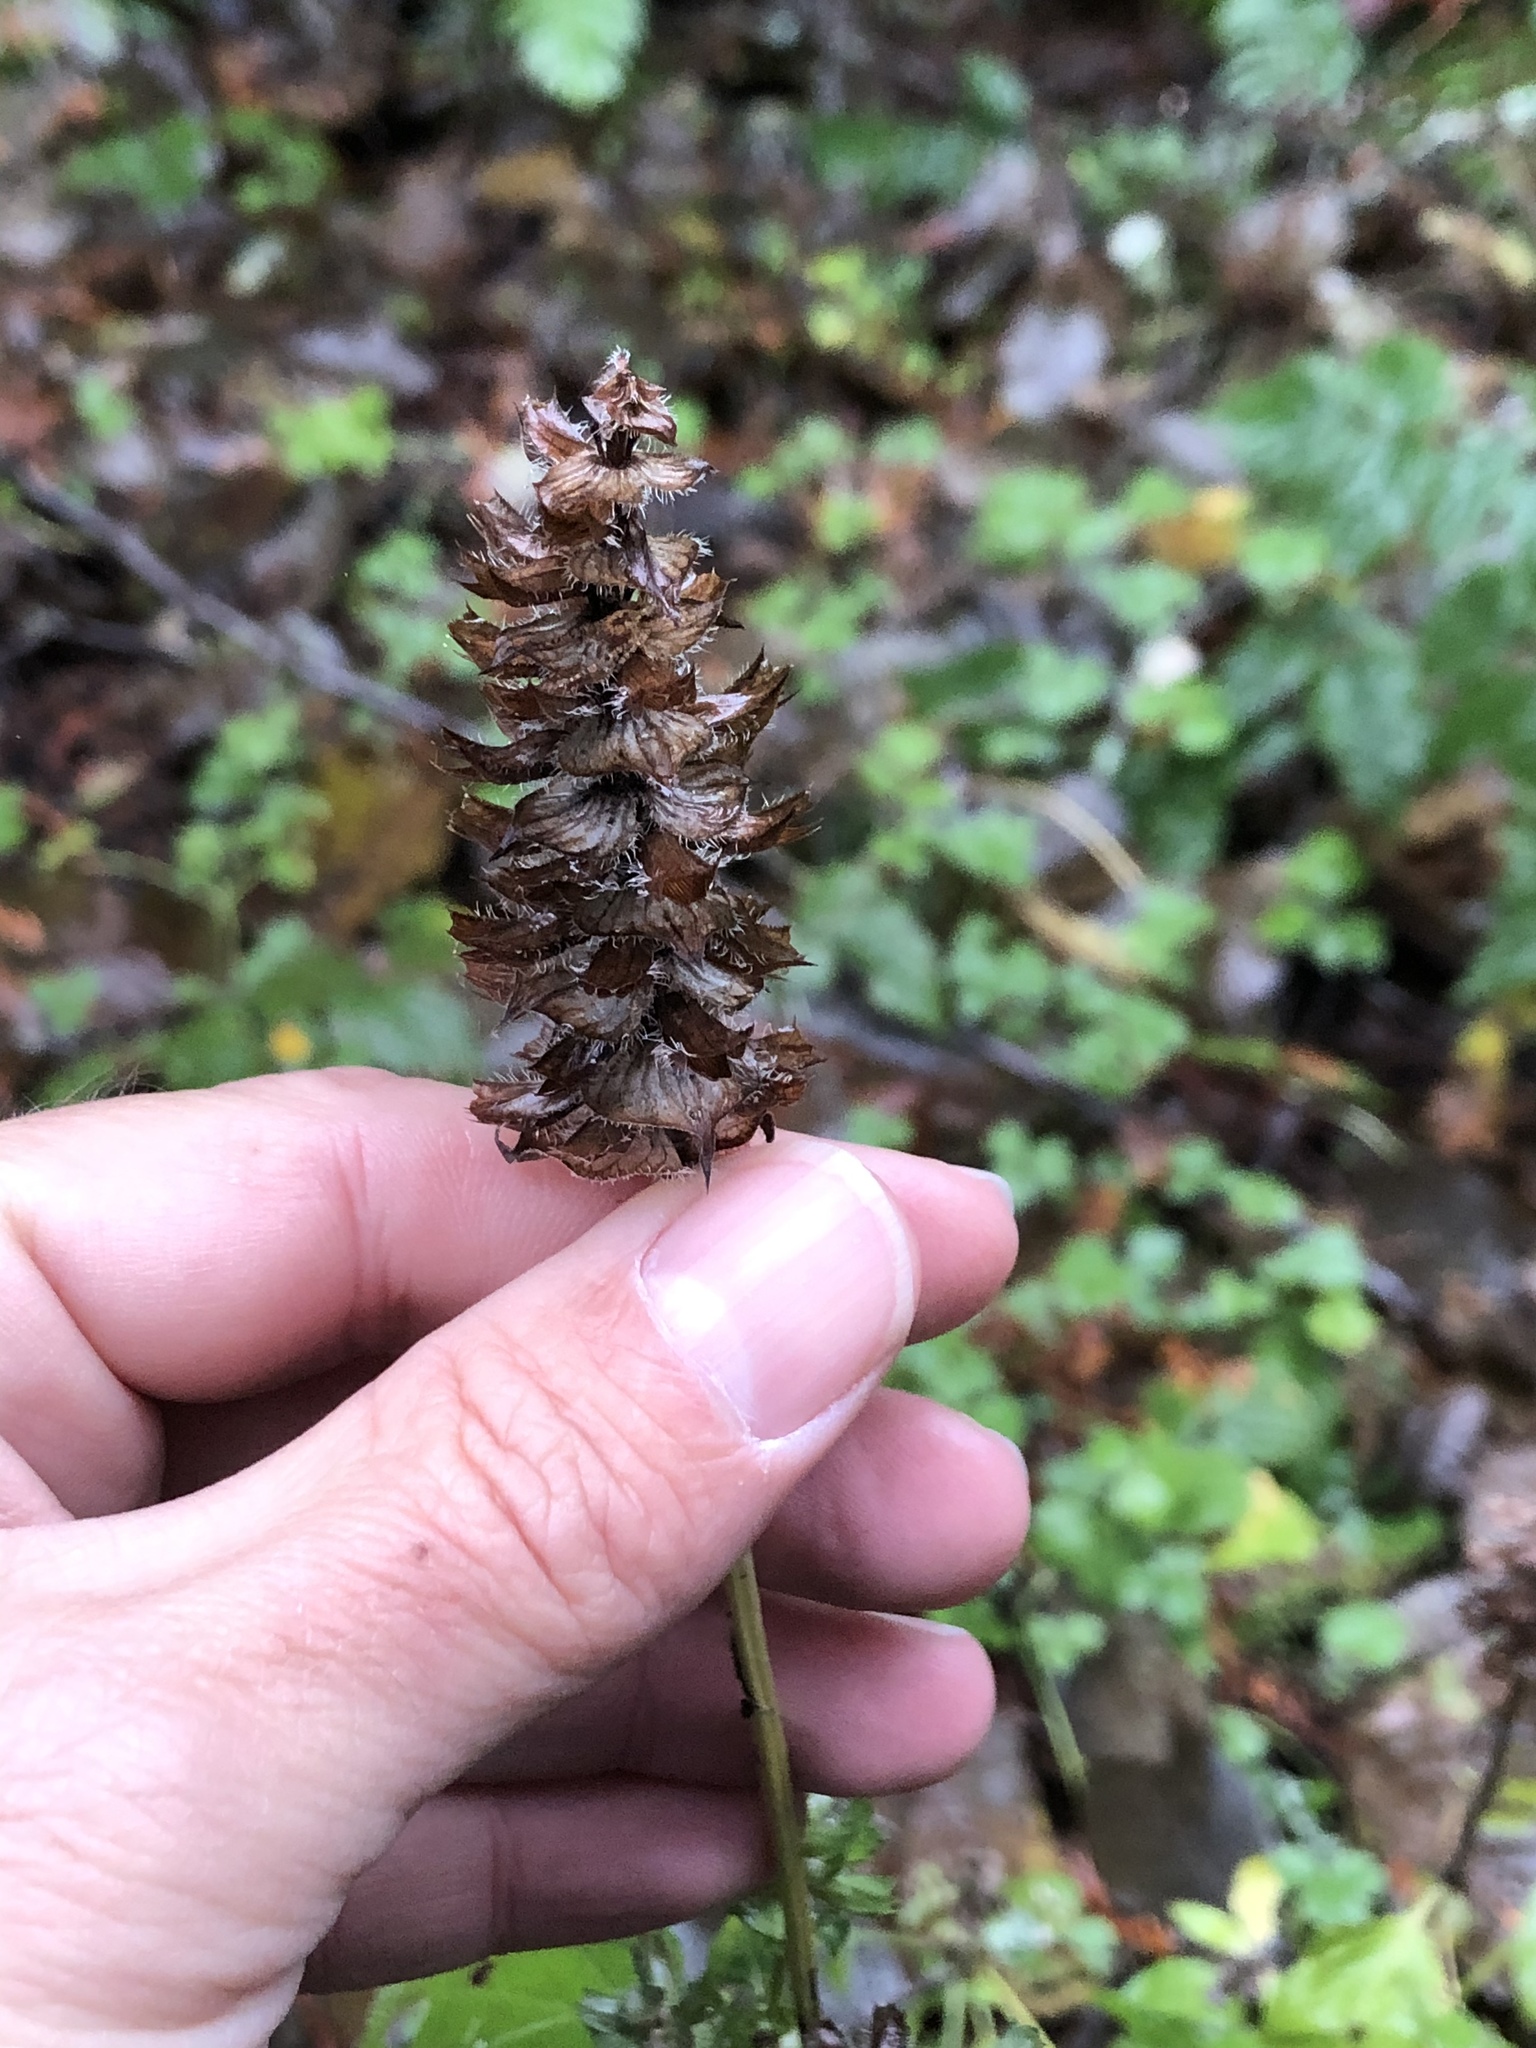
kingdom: Plantae
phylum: Tracheophyta
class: Magnoliopsida
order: Lamiales
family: Lamiaceae
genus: Prunella
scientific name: Prunella vulgaris
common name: Heal-all
